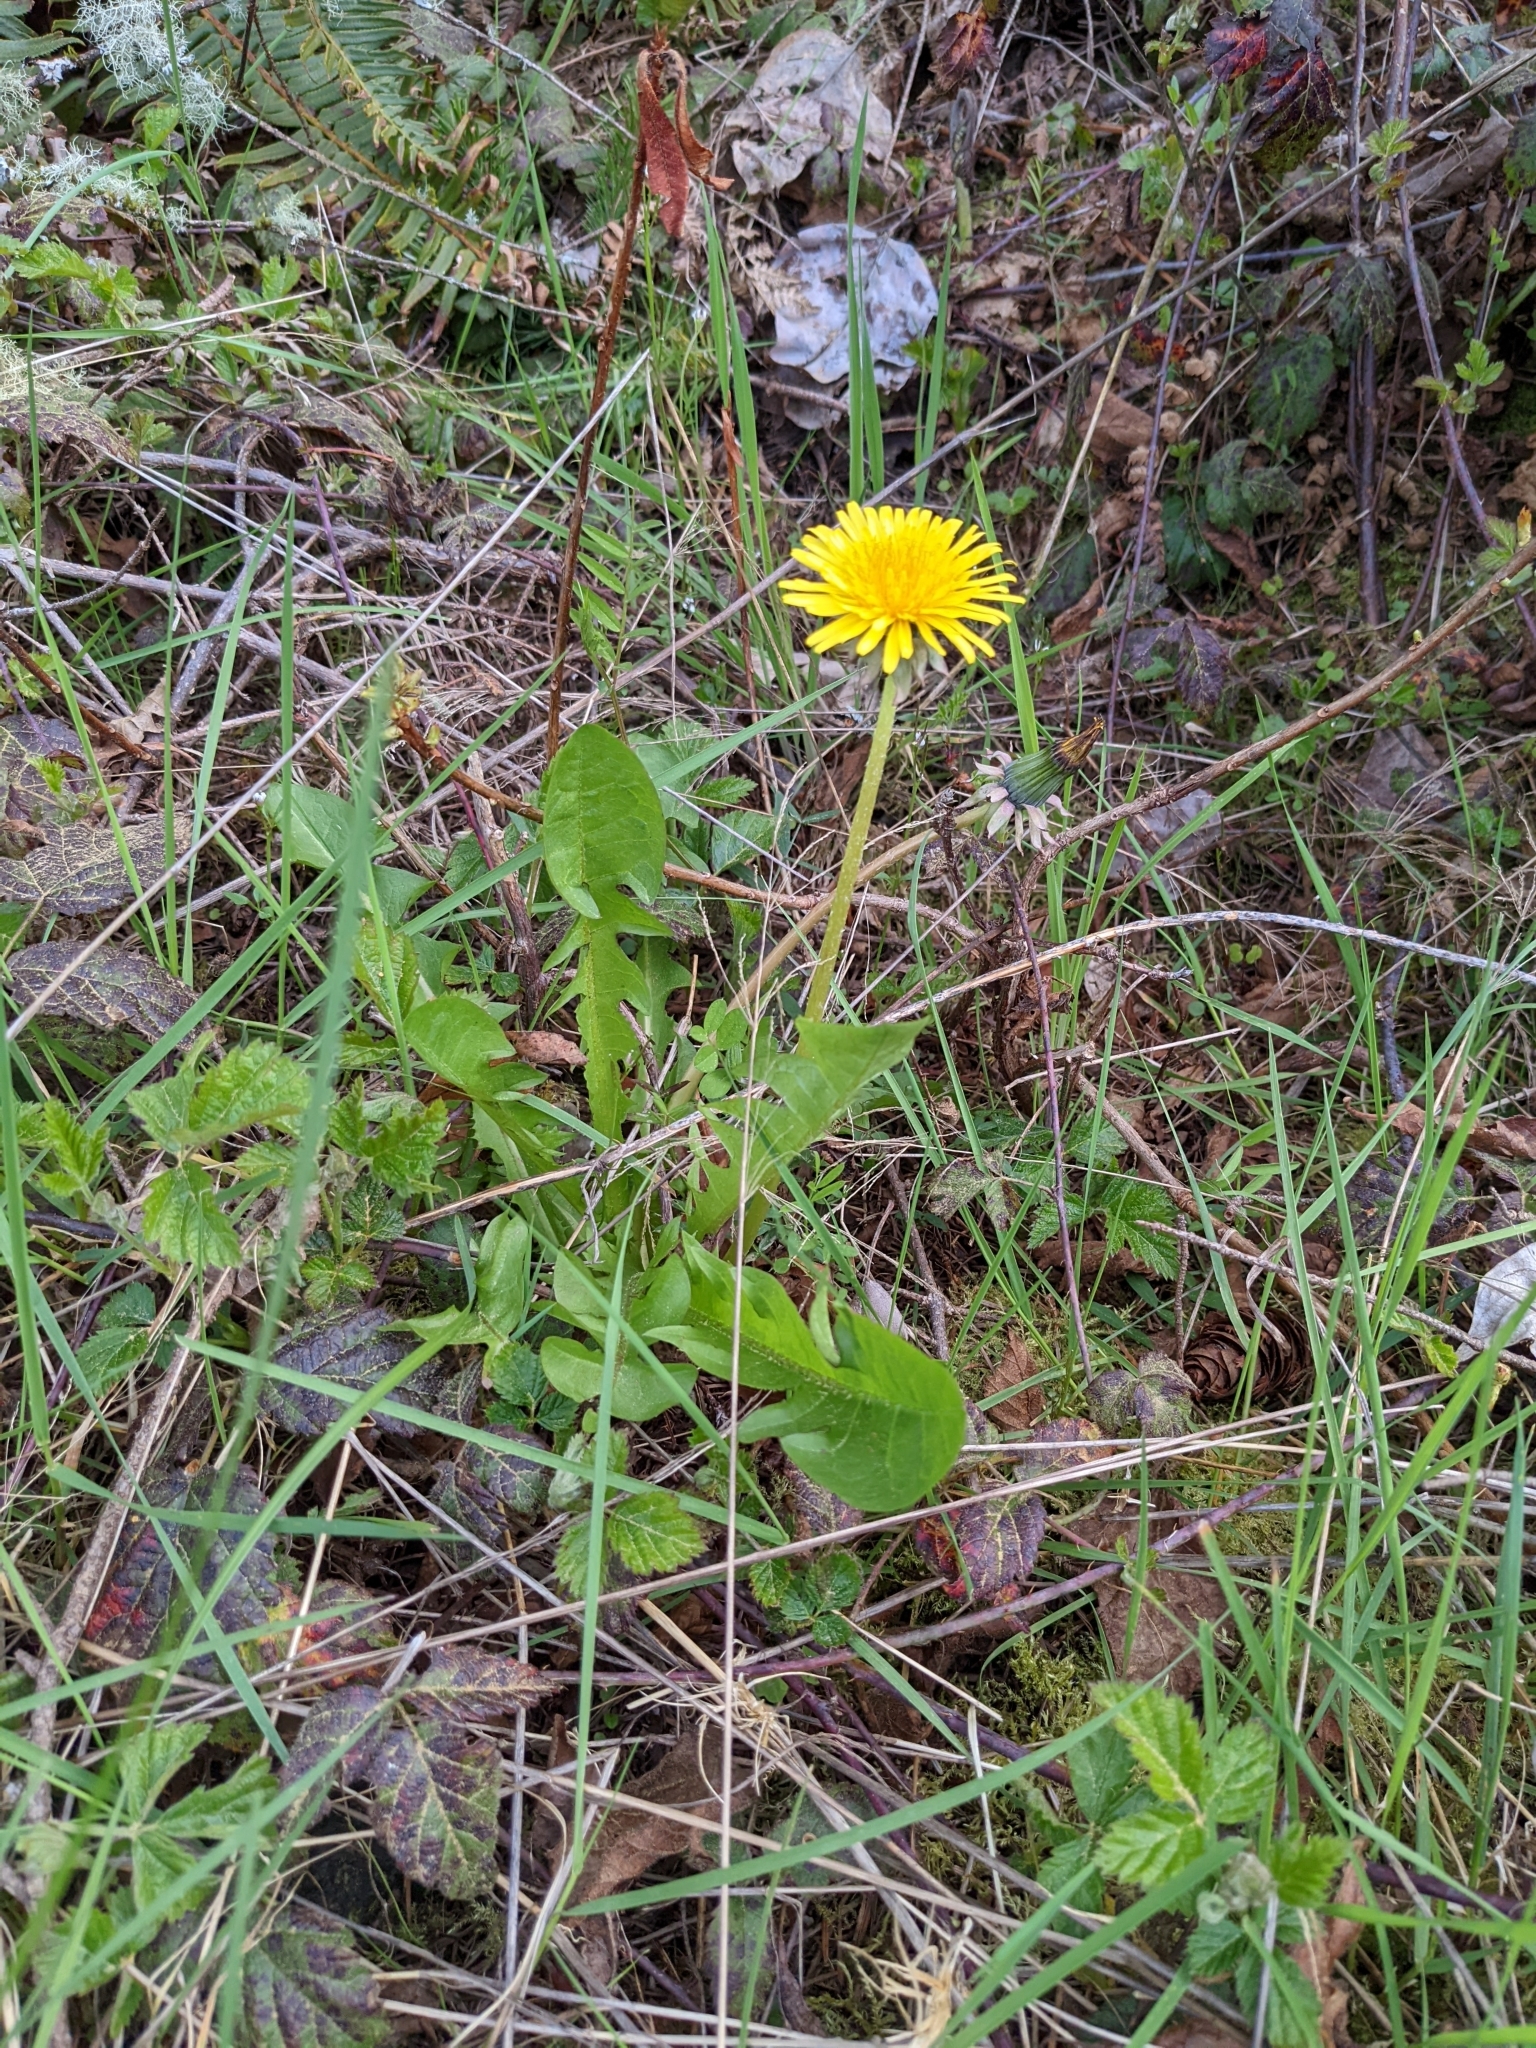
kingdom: Plantae
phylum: Tracheophyta
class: Magnoliopsida
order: Asterales
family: Asteraceae
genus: Taraxacum
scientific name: Taraxacum officinale
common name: Common dandelion
